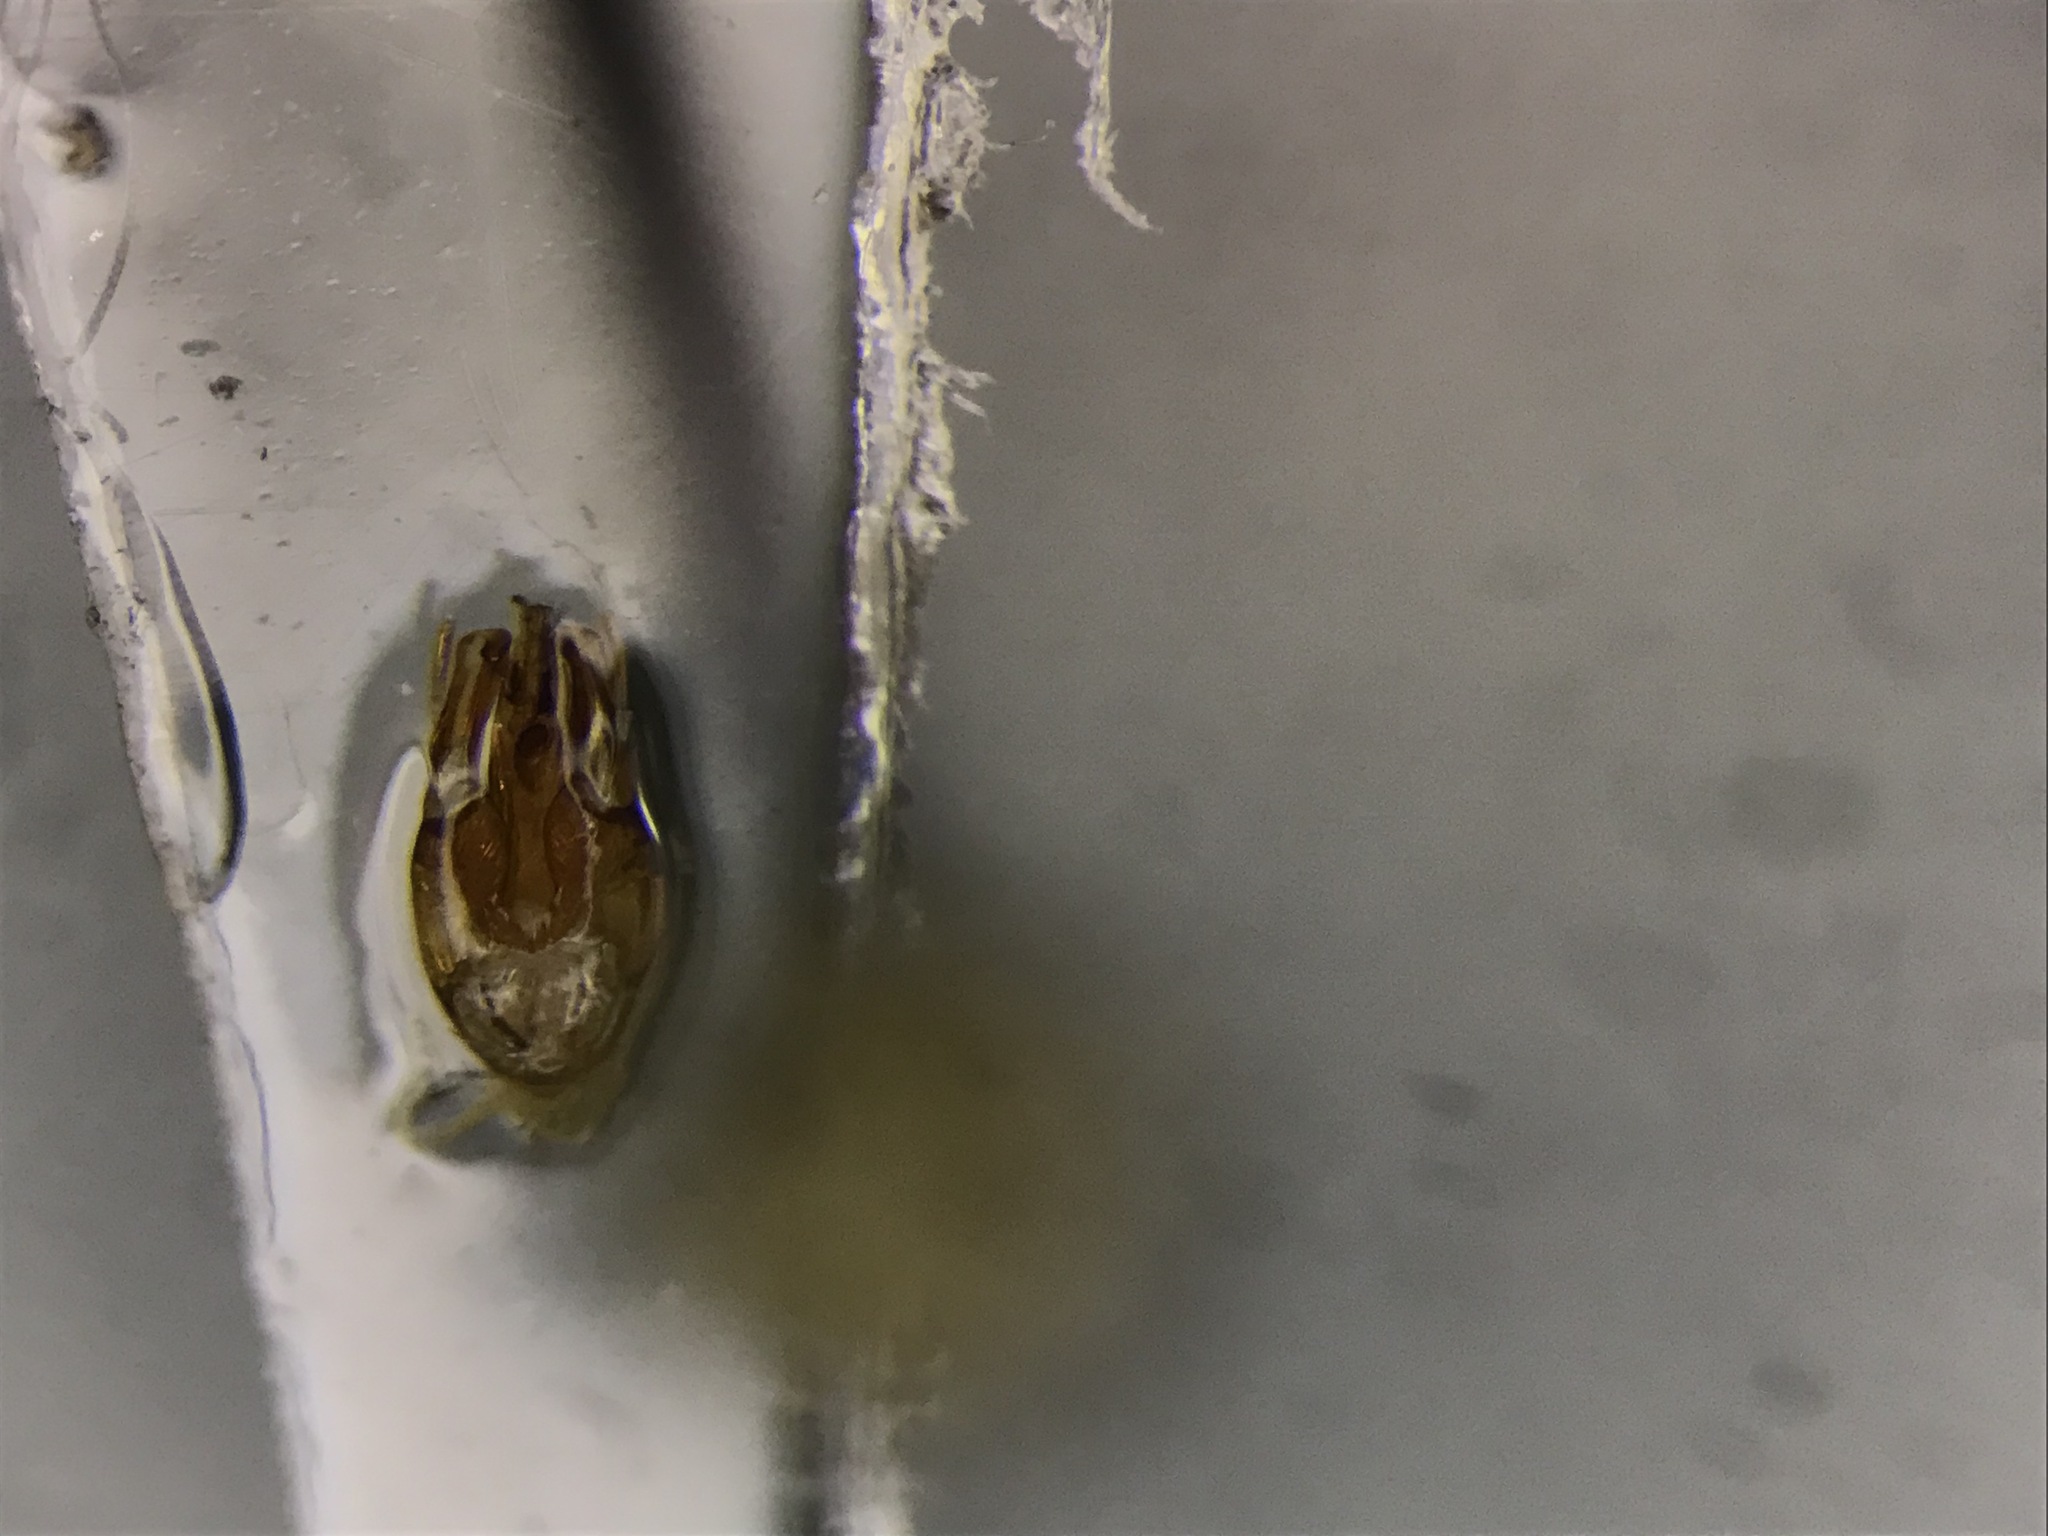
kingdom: Animalia
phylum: Arthropoda
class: Insecta
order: Coleoptera
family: Anobiidae
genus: Oligomerus
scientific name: Oligomerus obtusus
